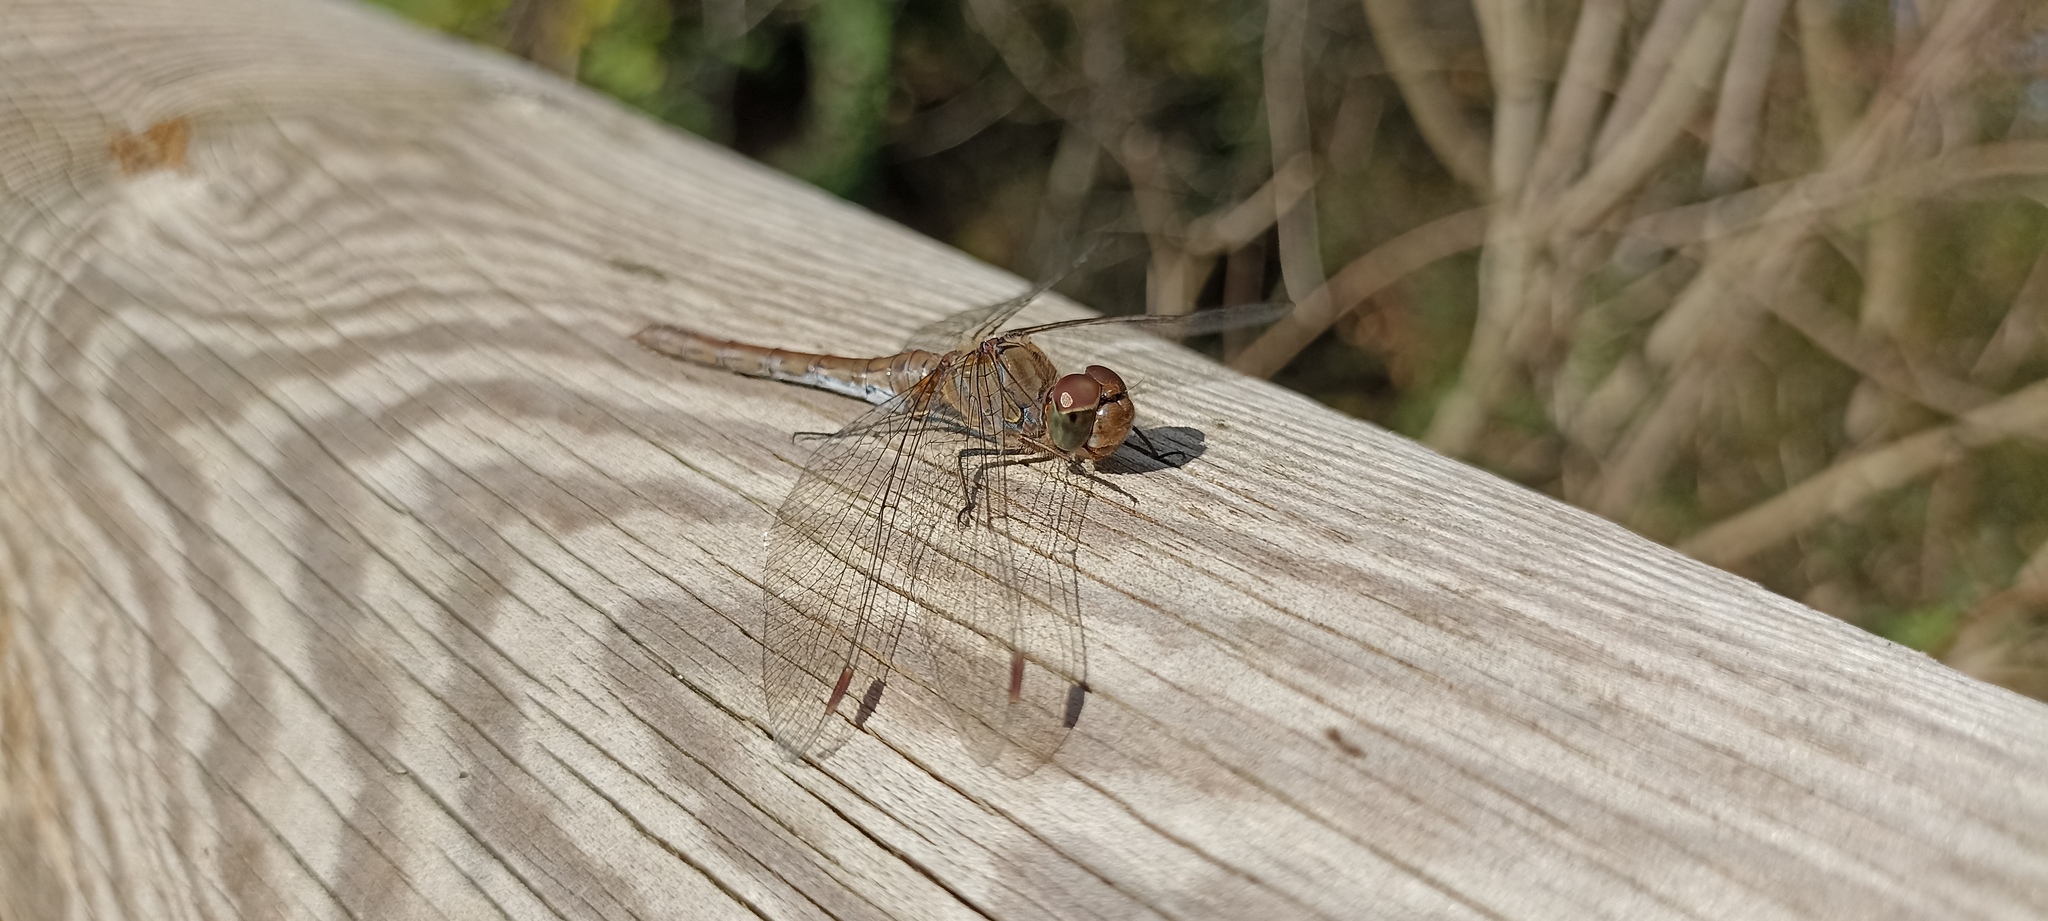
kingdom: Animalia
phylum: Arthropoda
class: Insecta
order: Odonata
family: Libellulidae
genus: Sympetrum
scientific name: Sympetrum striolatum
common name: Common darter
